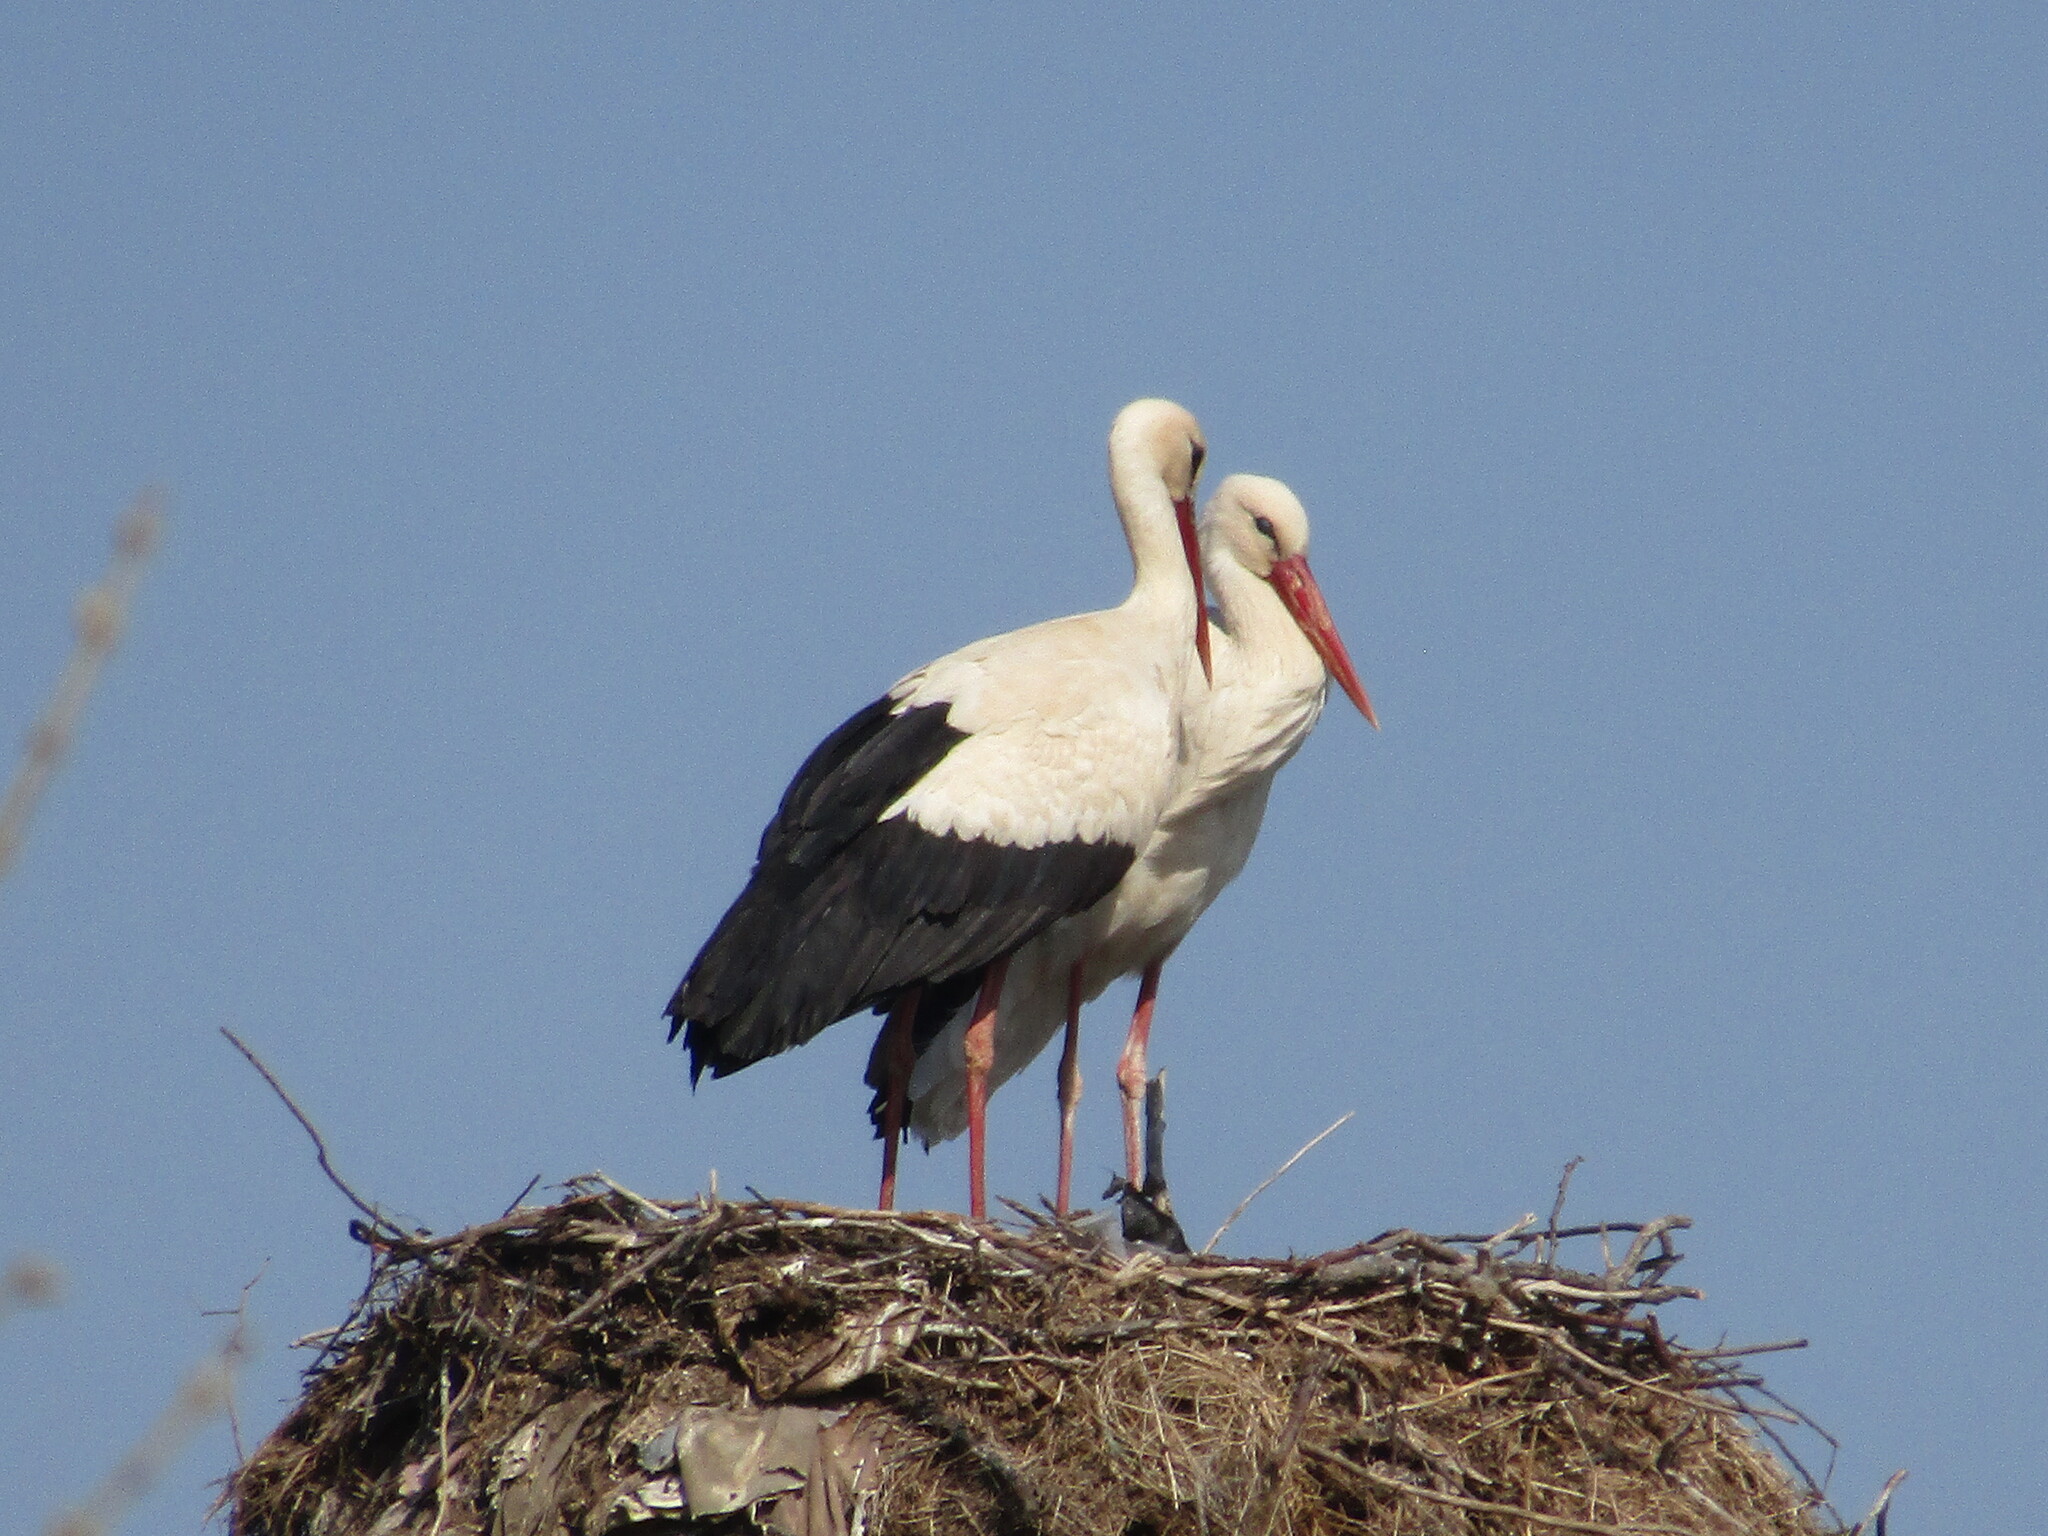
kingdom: Animalia
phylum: Chordata
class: Aves
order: Ciconiiformes
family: Ciconiidae
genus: Ciconia
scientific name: Ciconia ciconia
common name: White stork
